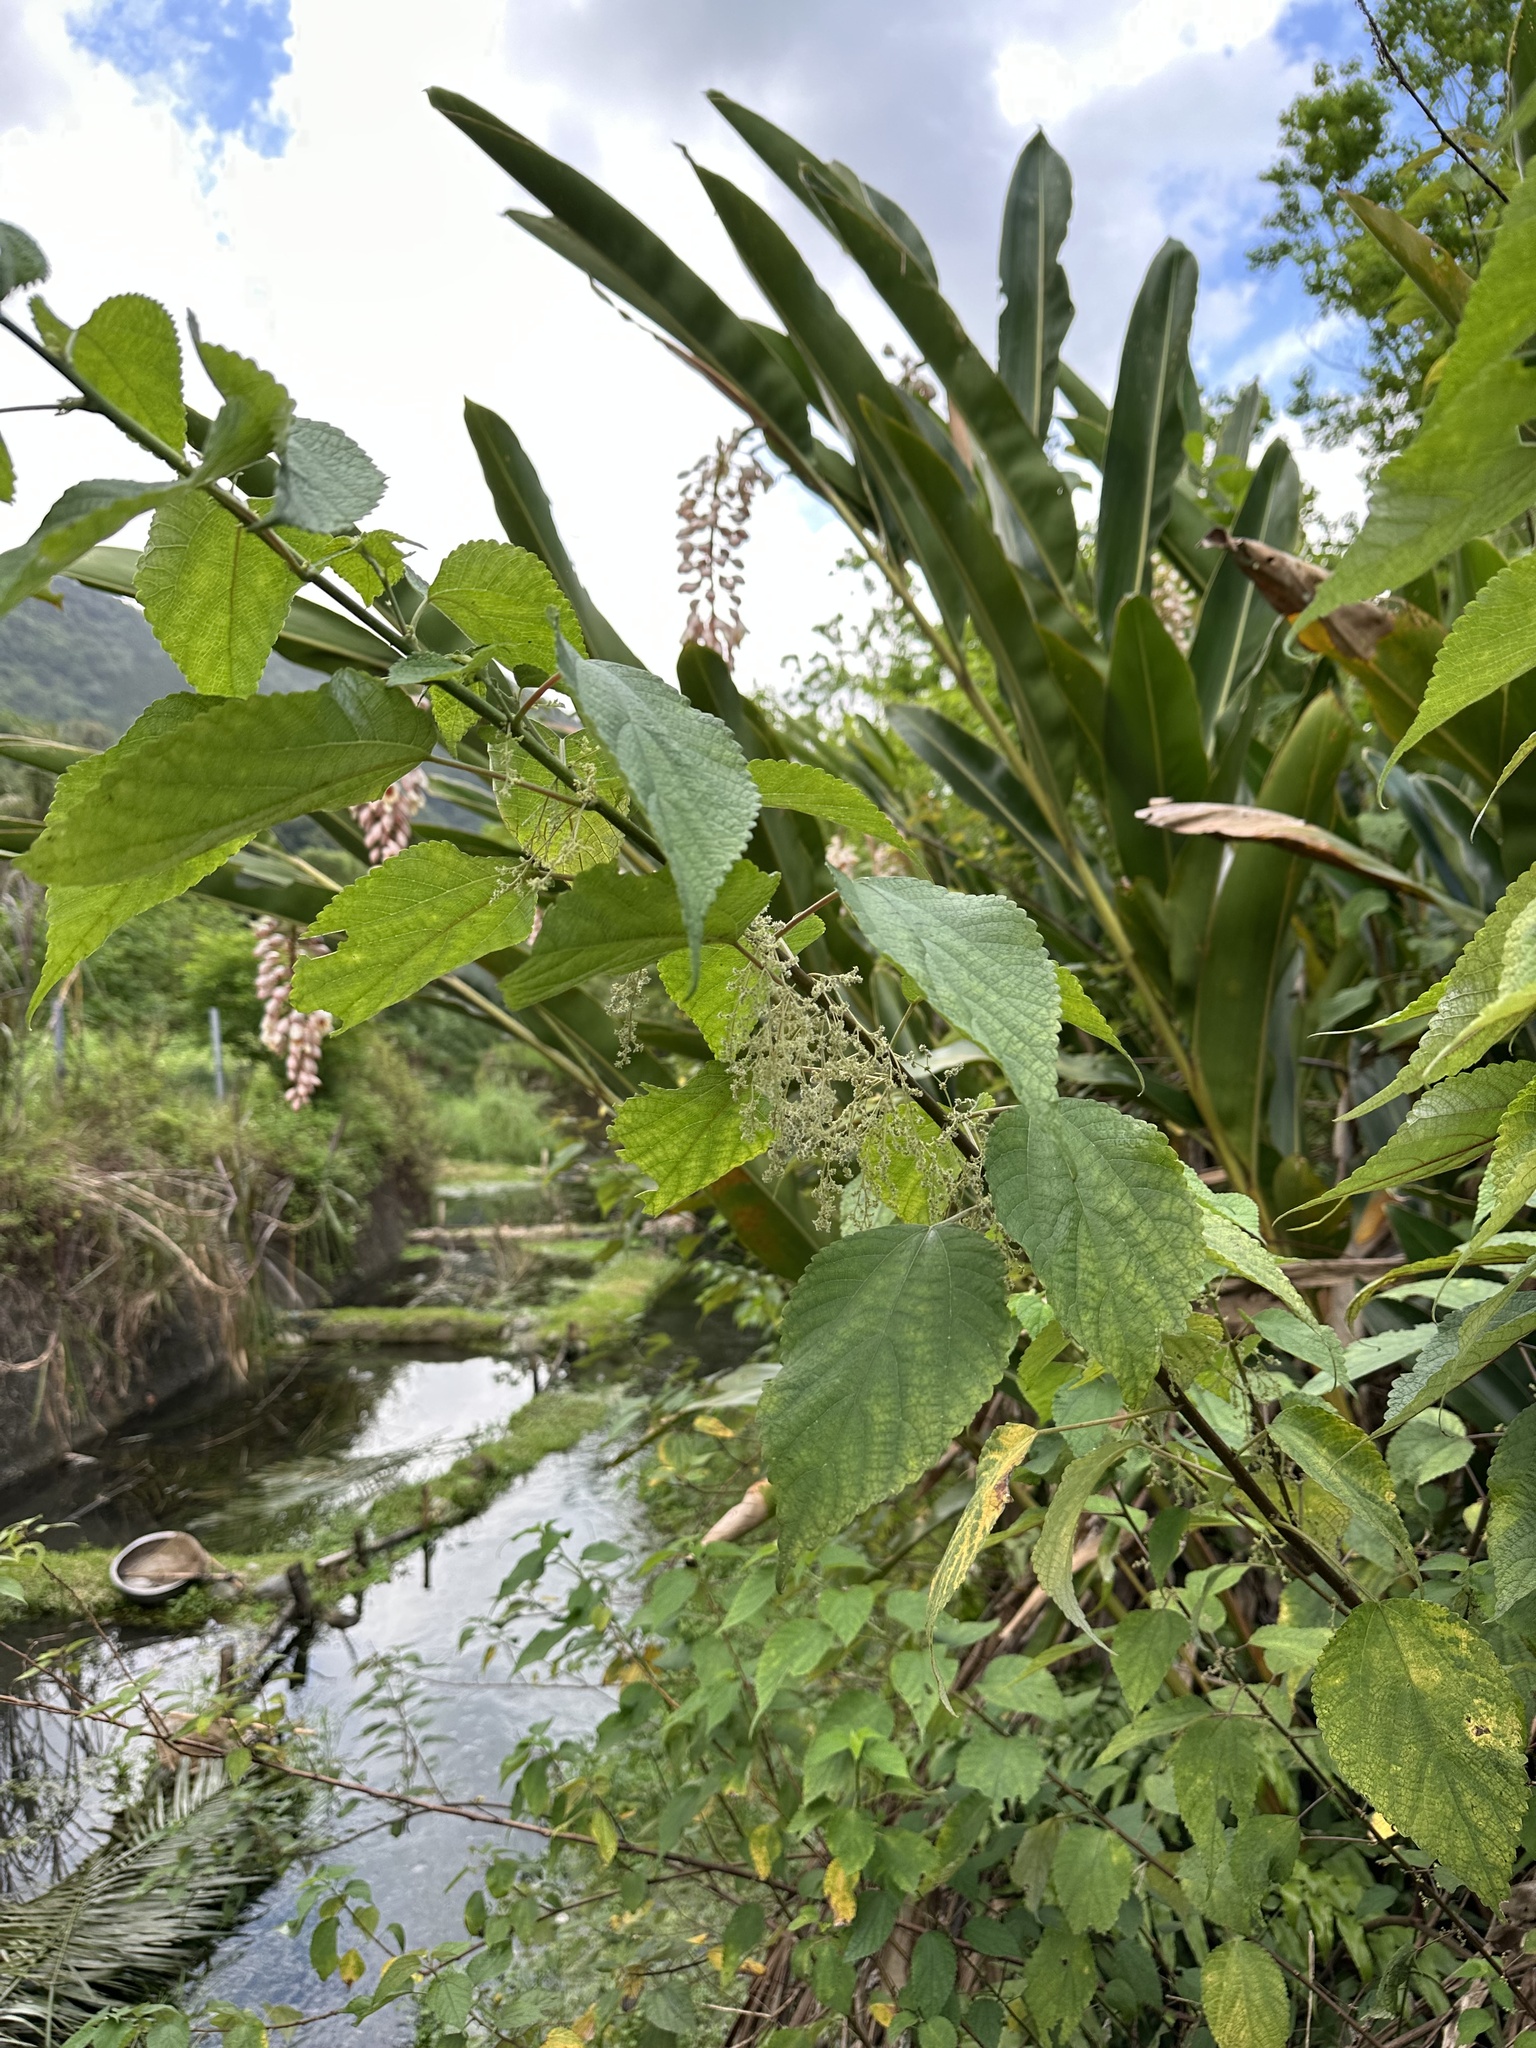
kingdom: Plantae
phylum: Tracheophyta
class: Magnoliopsida
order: Rosales
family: Urticaceae
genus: Boehmeria
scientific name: Boehmeria nivea
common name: Ramie chinese grass
